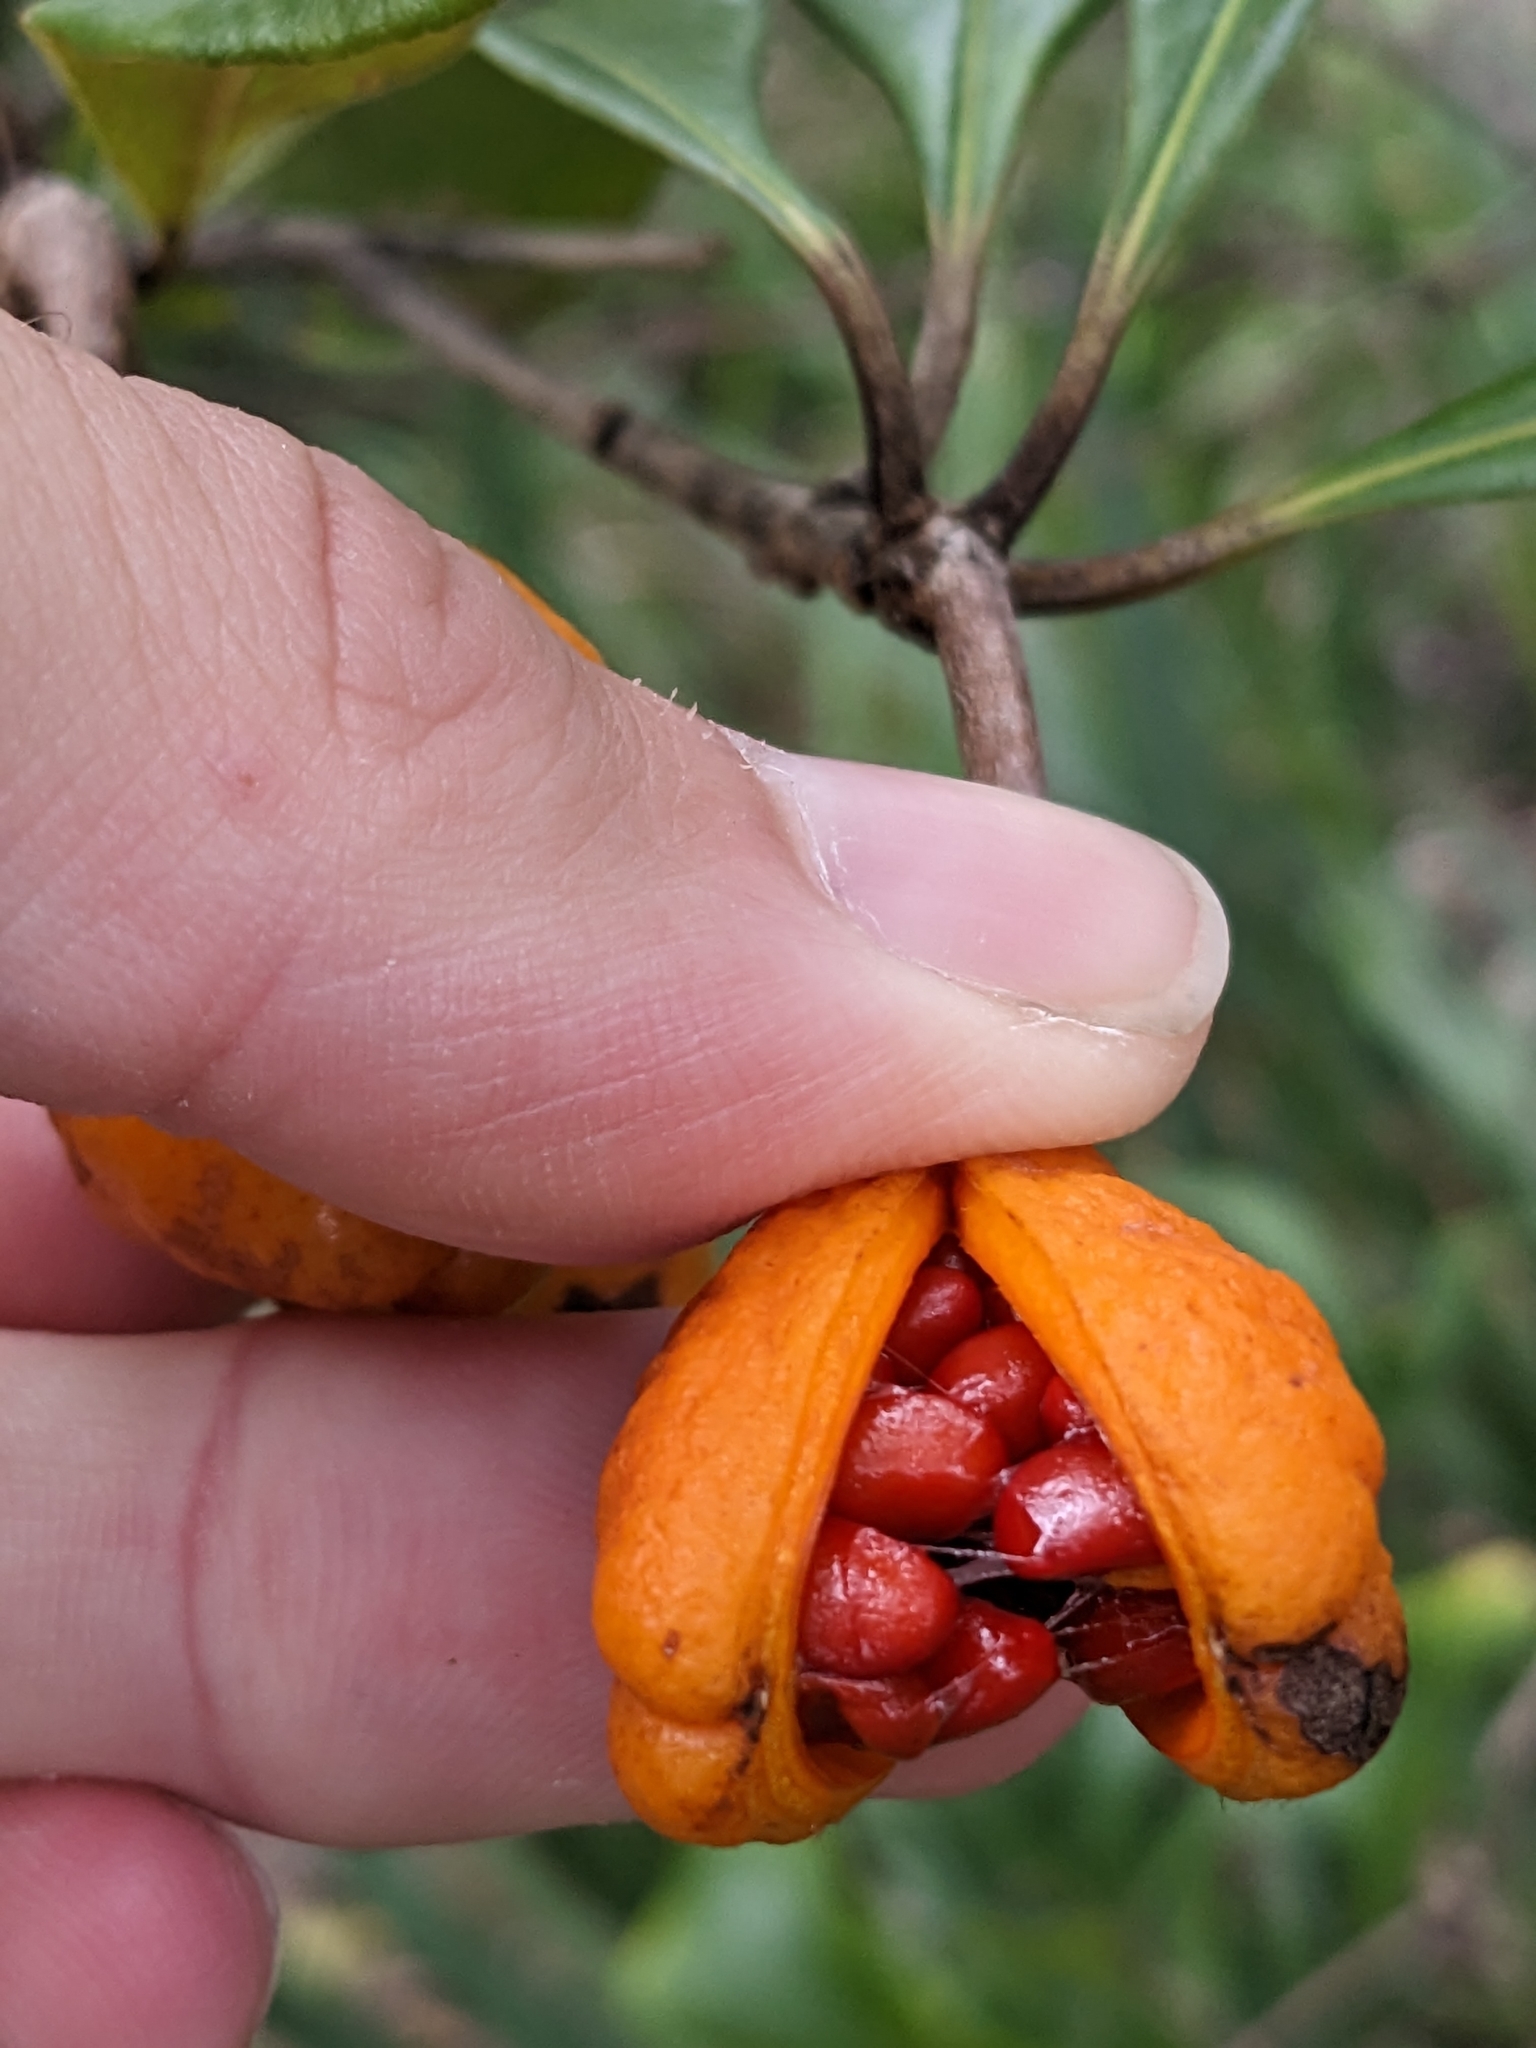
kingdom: Plantae
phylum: Tracheophyta
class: Magnoliopsida
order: Apiales
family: Pittosporaceae
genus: Pittosporum
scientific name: Pittosporum revolutum
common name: Brisbane-laurel
